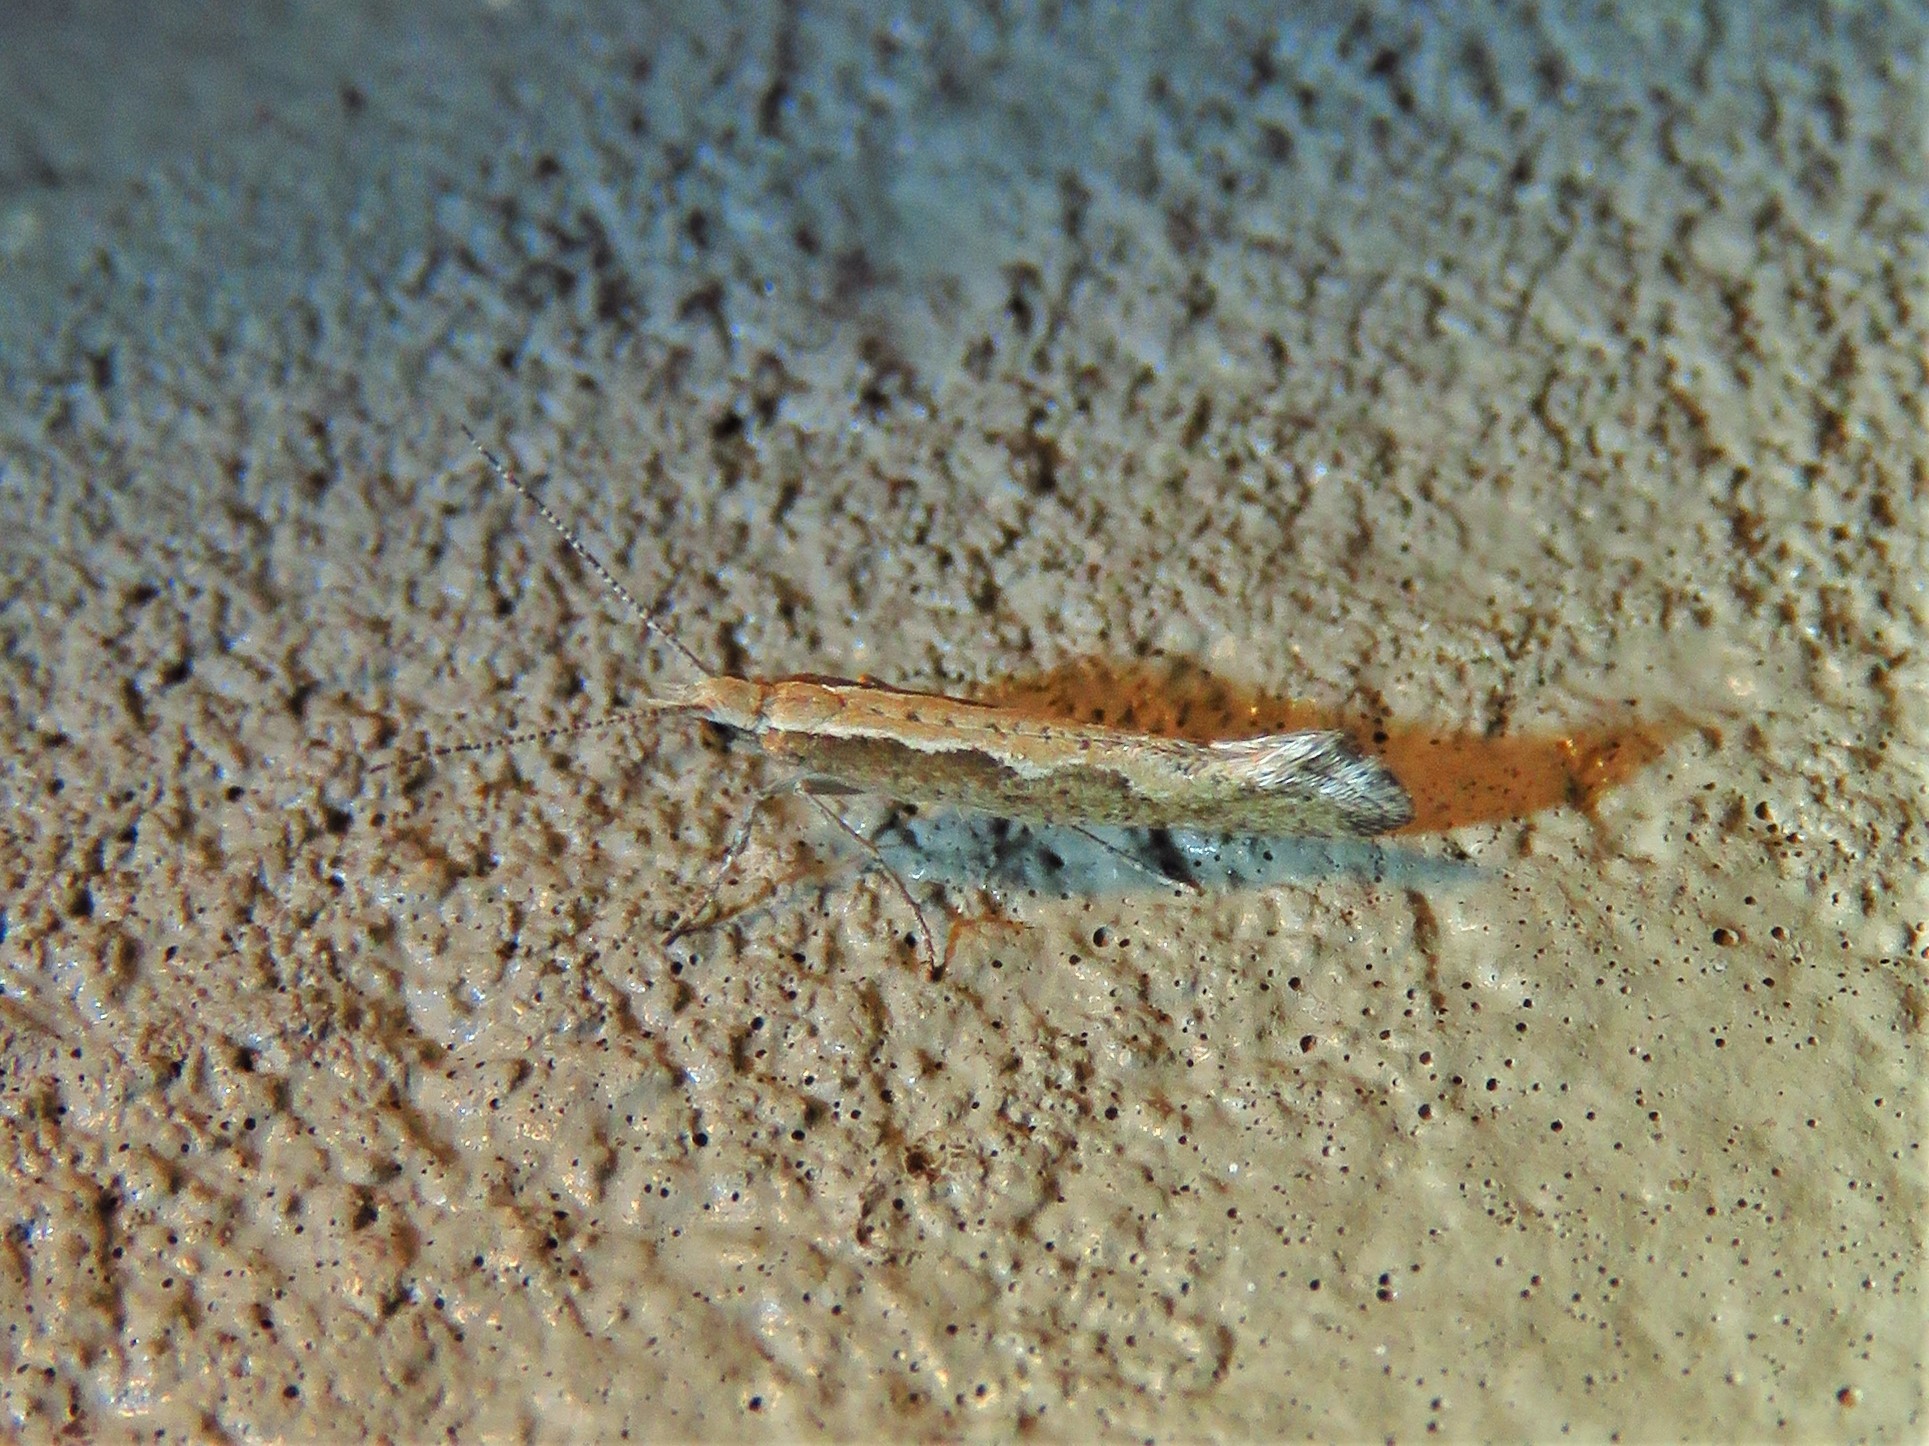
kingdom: Animalia
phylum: Arthropoda
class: Insecta
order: Lepidoptera
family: Plutellidae
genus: Plutella
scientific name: Plutella xylostella
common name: Diamond-back moth
